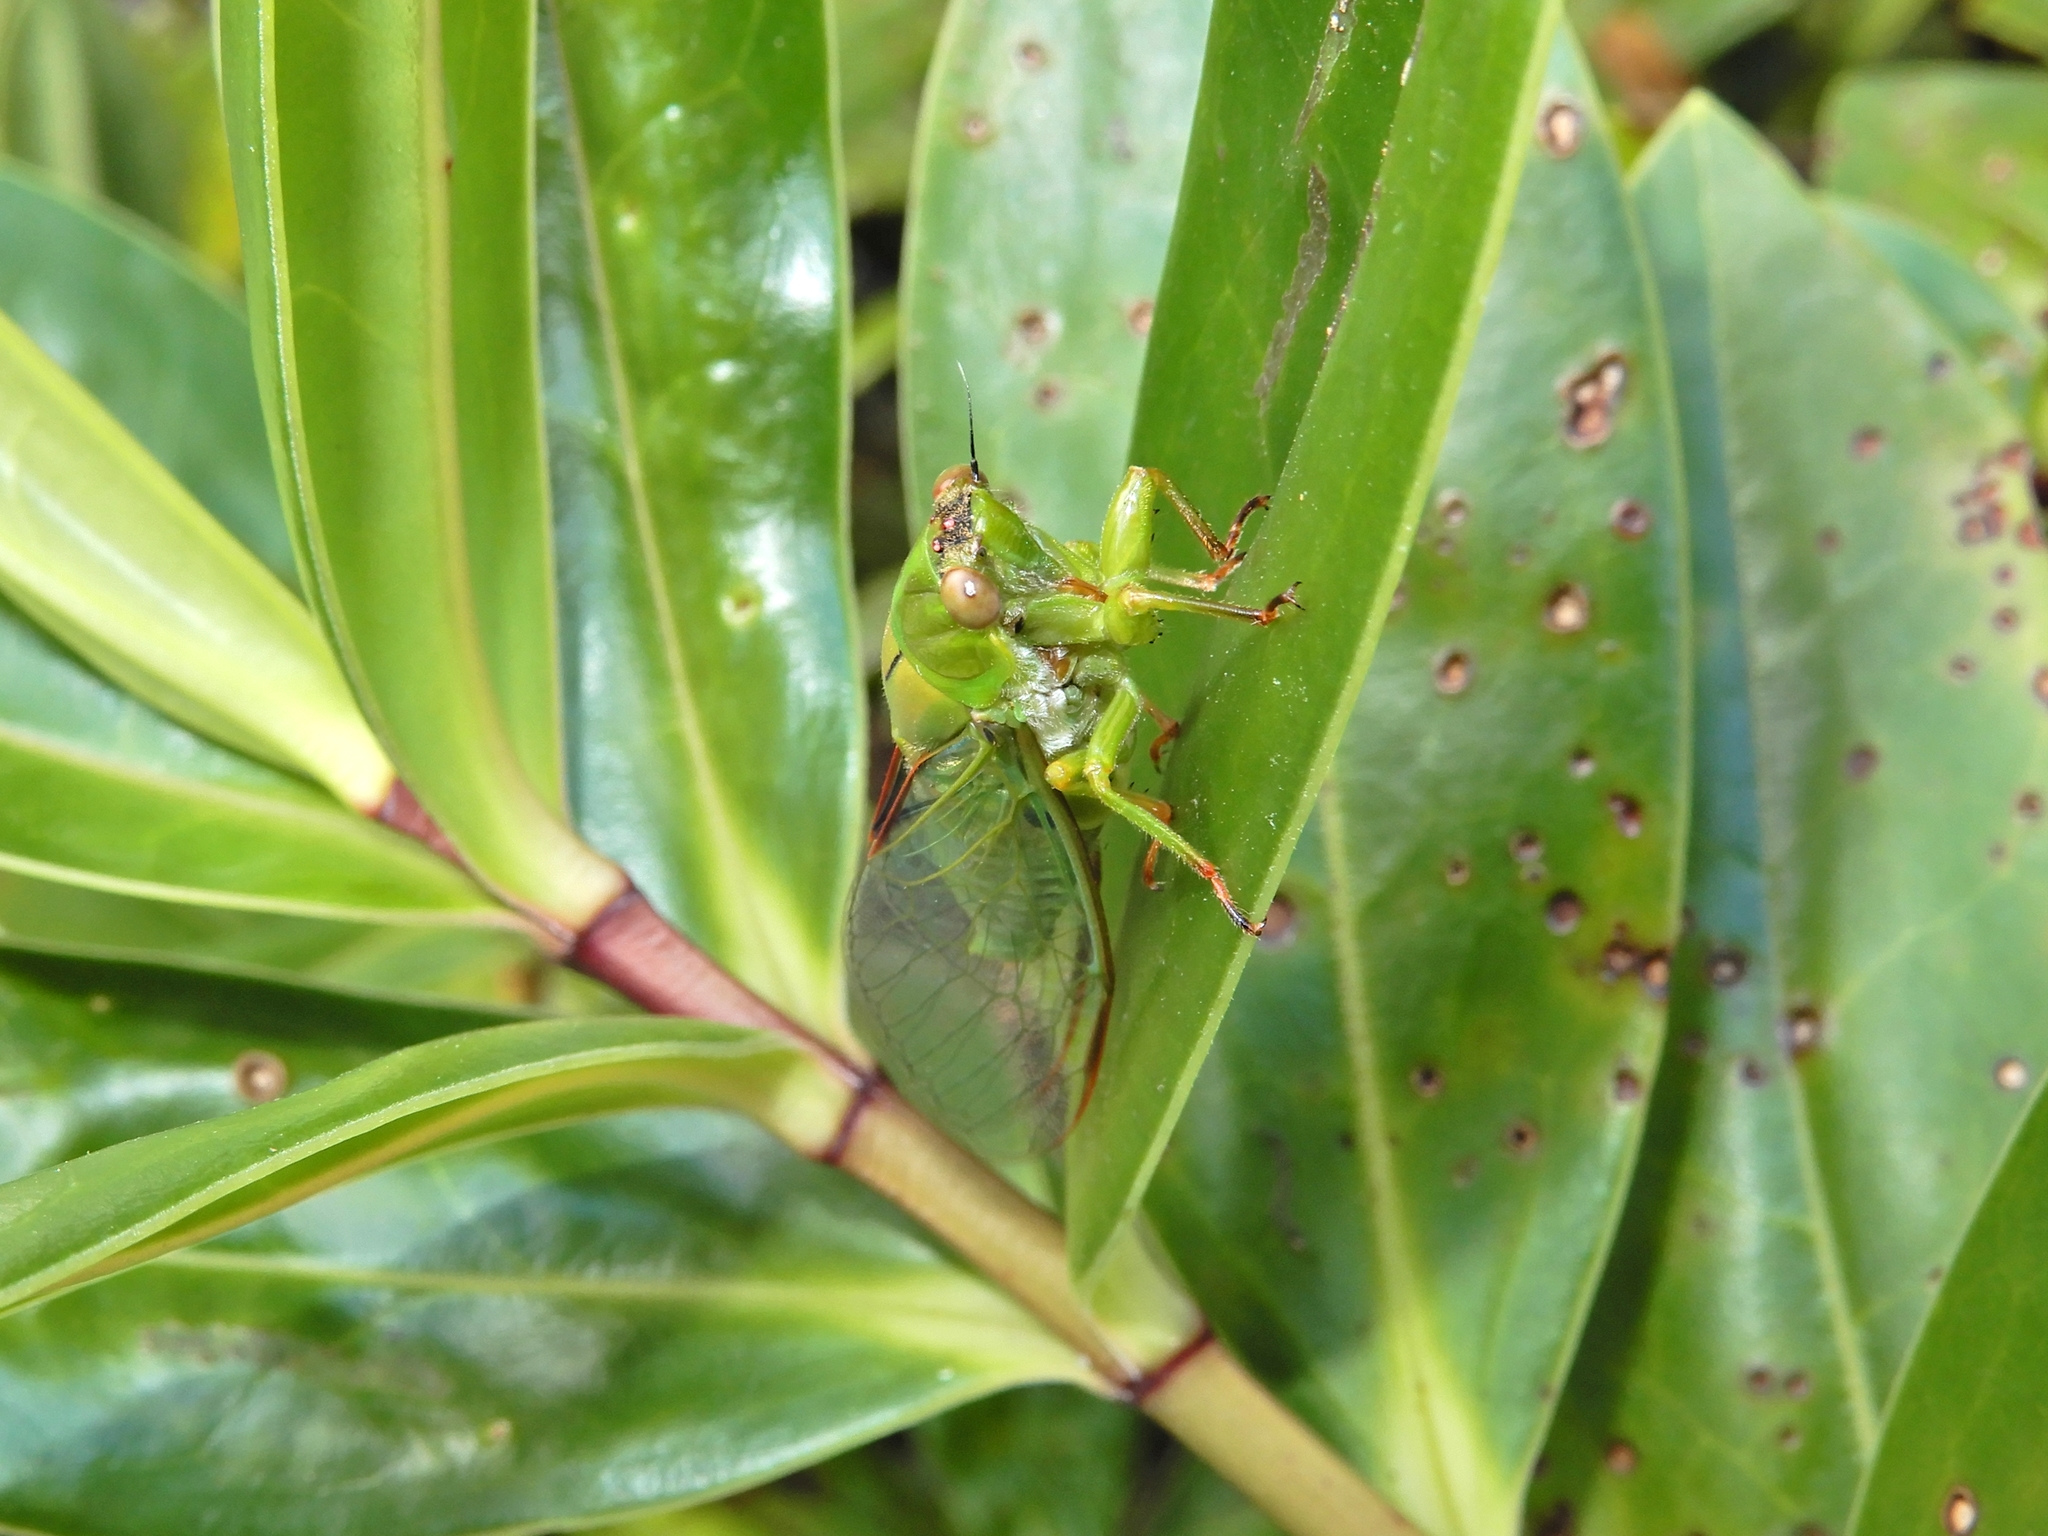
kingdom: Animalia
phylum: Arthropoda
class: Insecta
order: Hemiptera
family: Cicadidae
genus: Kikihia
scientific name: Kikihia ochrina
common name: April green cicada
